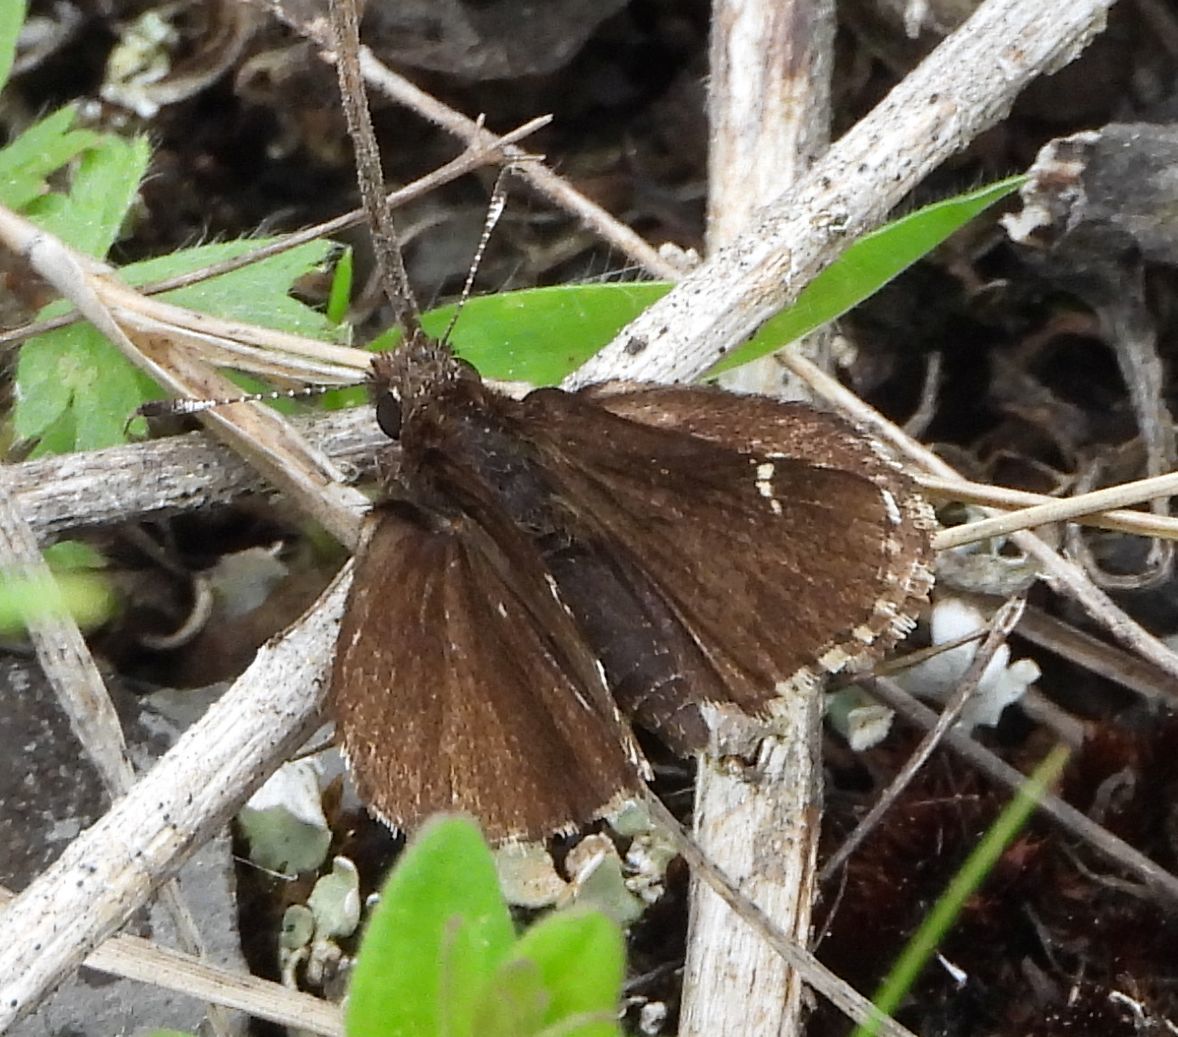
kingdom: Animalia
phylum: Arthropoda
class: Insecta
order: Lepidoptera
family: Hesperiidae
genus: Mastor
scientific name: Mastor vialis
